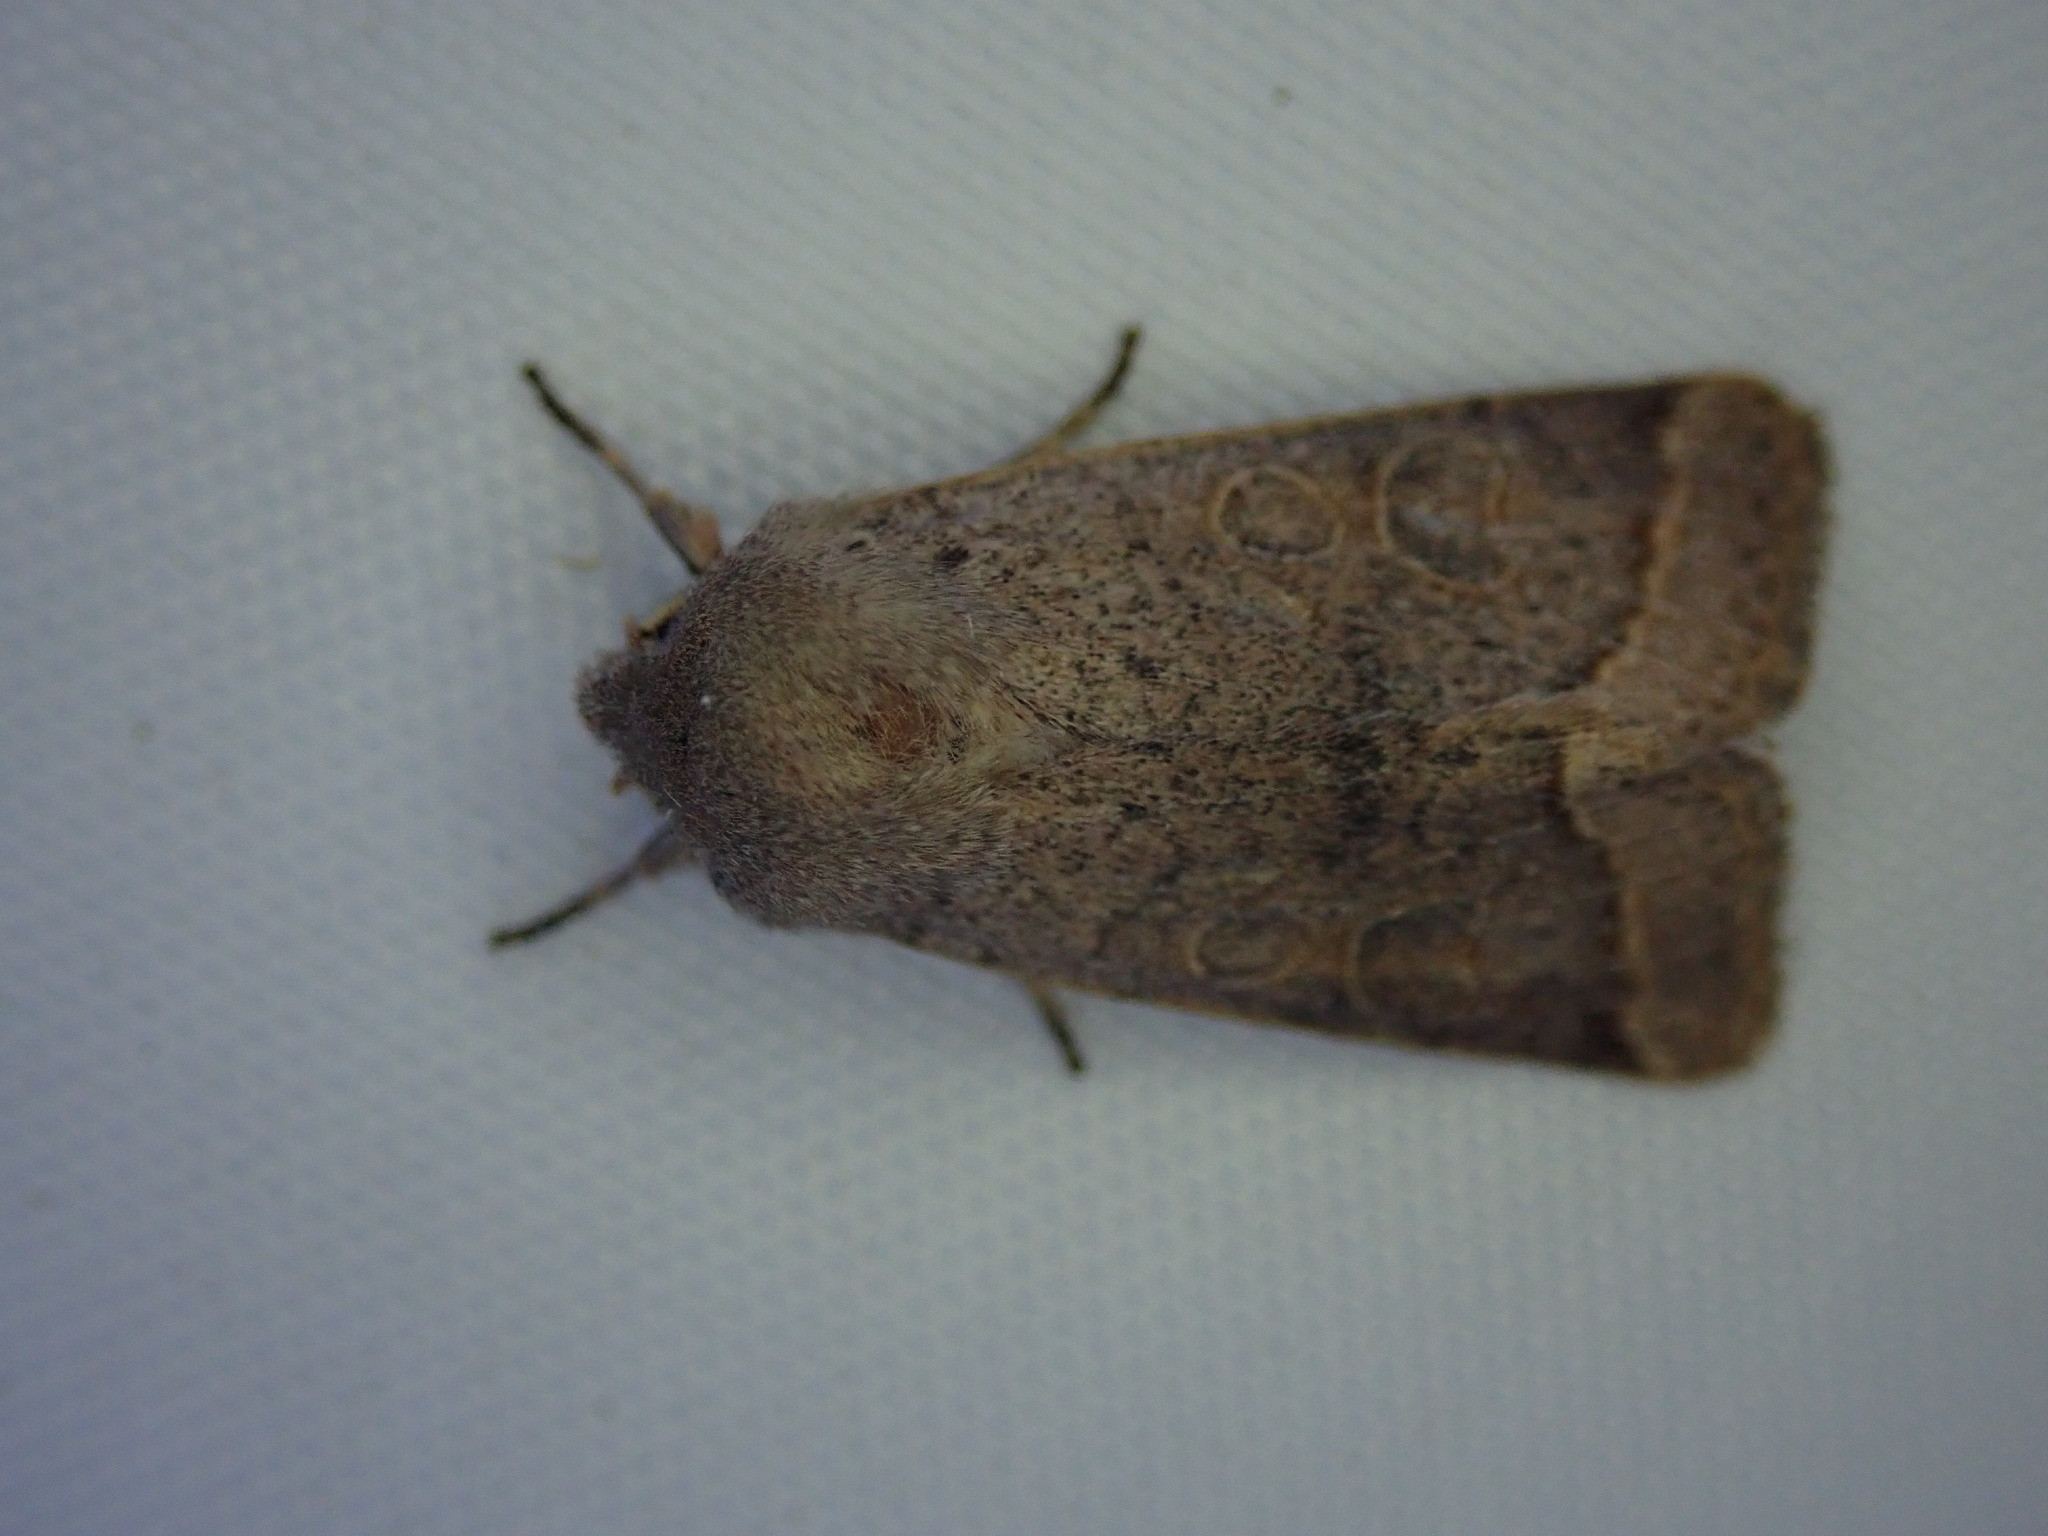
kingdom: Animalia
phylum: Arthropoda
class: Insecta
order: Lepidoptera
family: Noctuidae
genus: Orthosia
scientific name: Orthosia cerasi
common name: Common quaker
